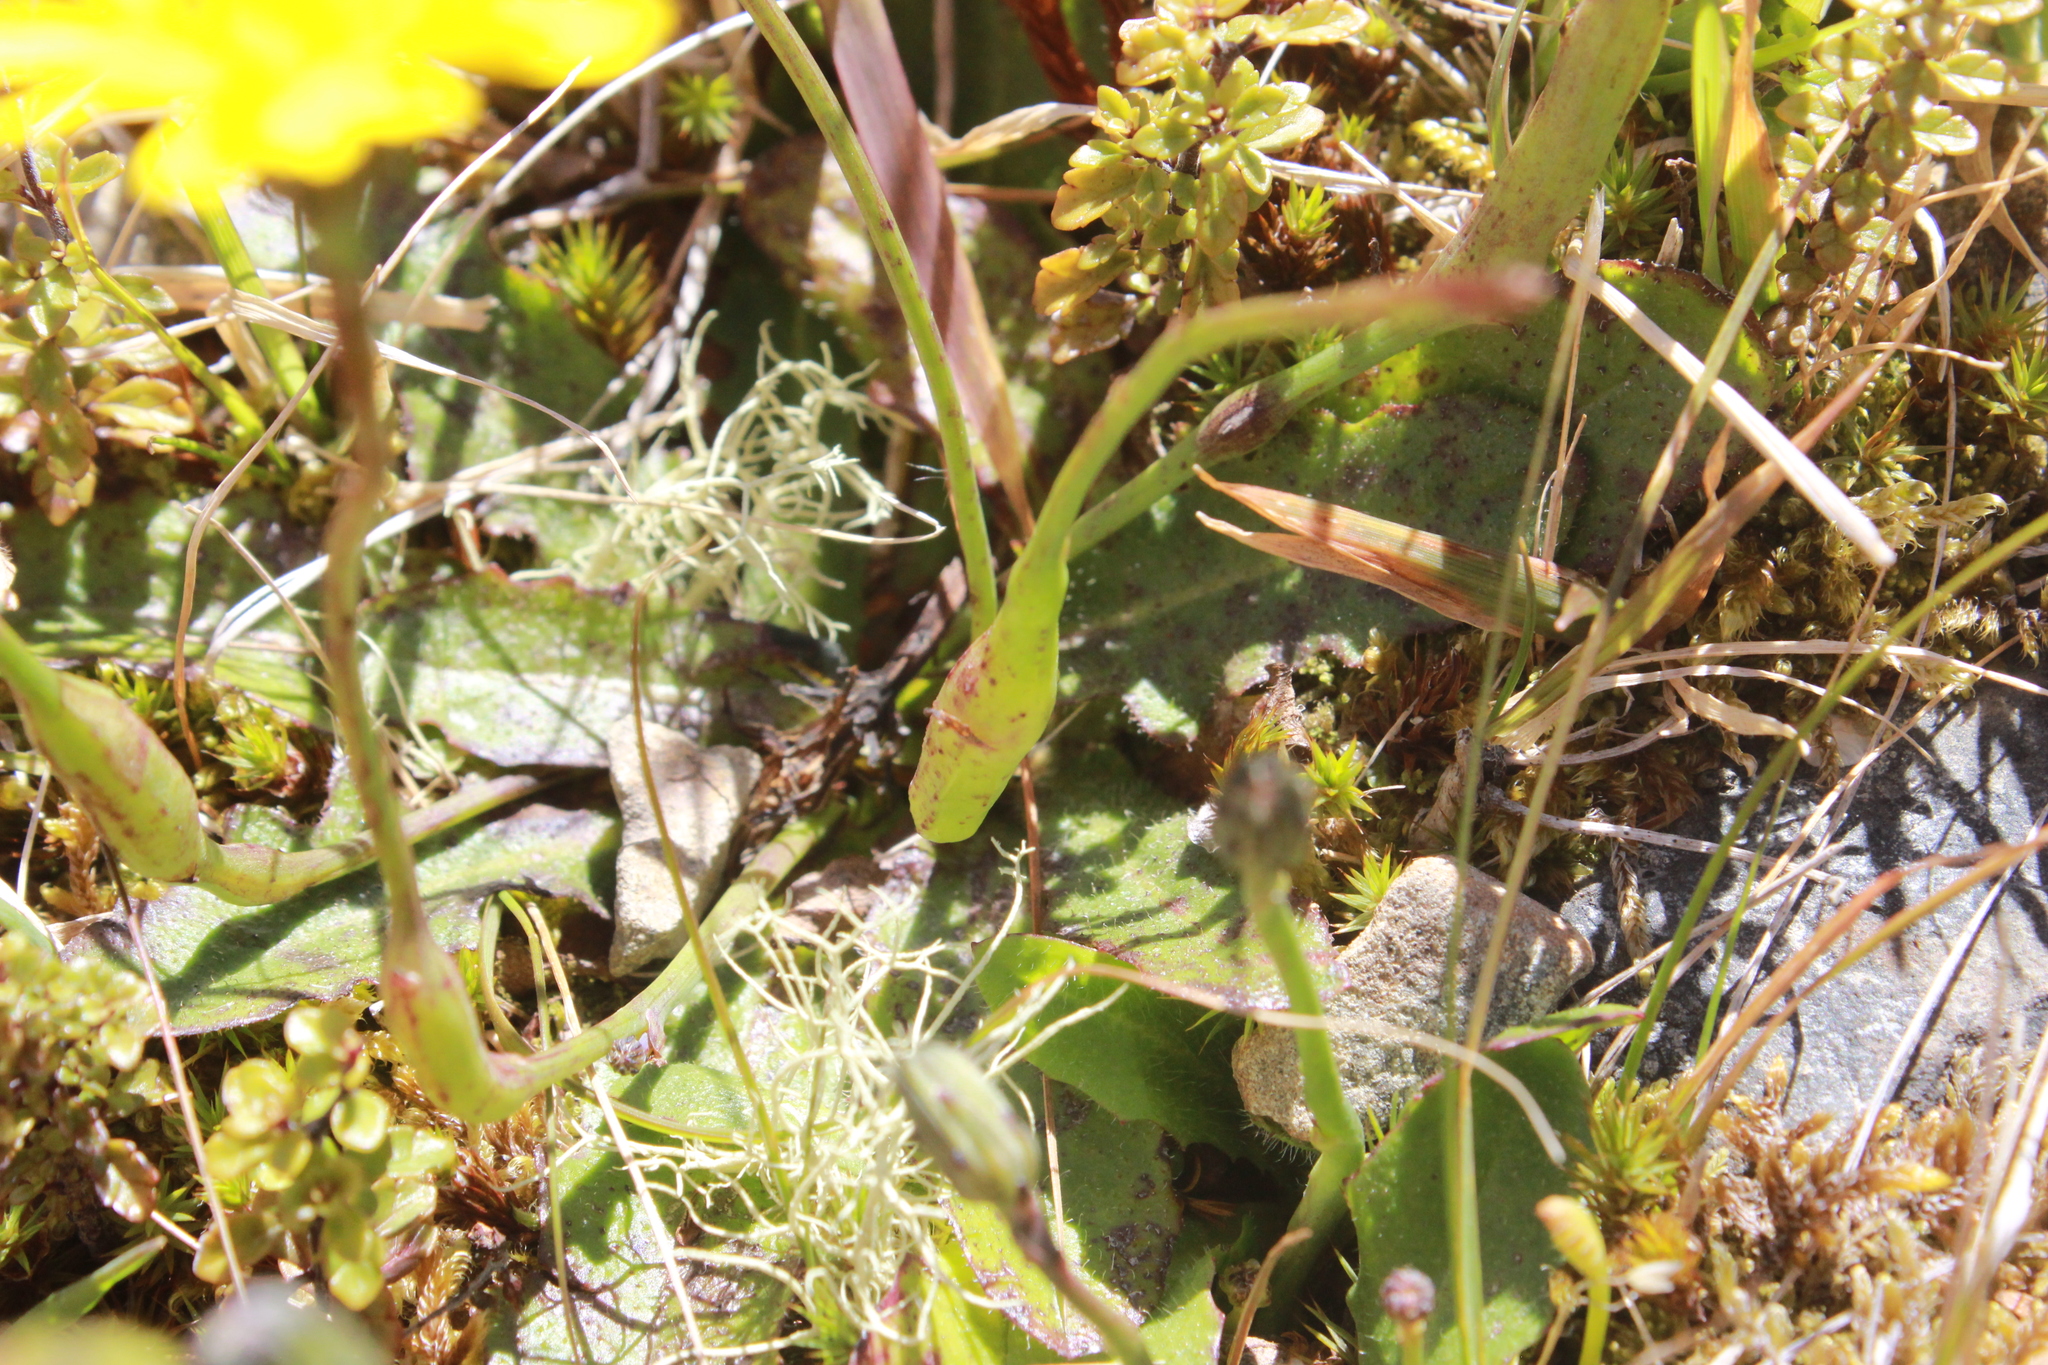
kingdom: Animalia
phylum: Arthropoda
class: Insecta
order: Hymenoptera
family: Cynipidae
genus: Phanacis
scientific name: Phanacis hypochoeridis
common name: Gall wasp
